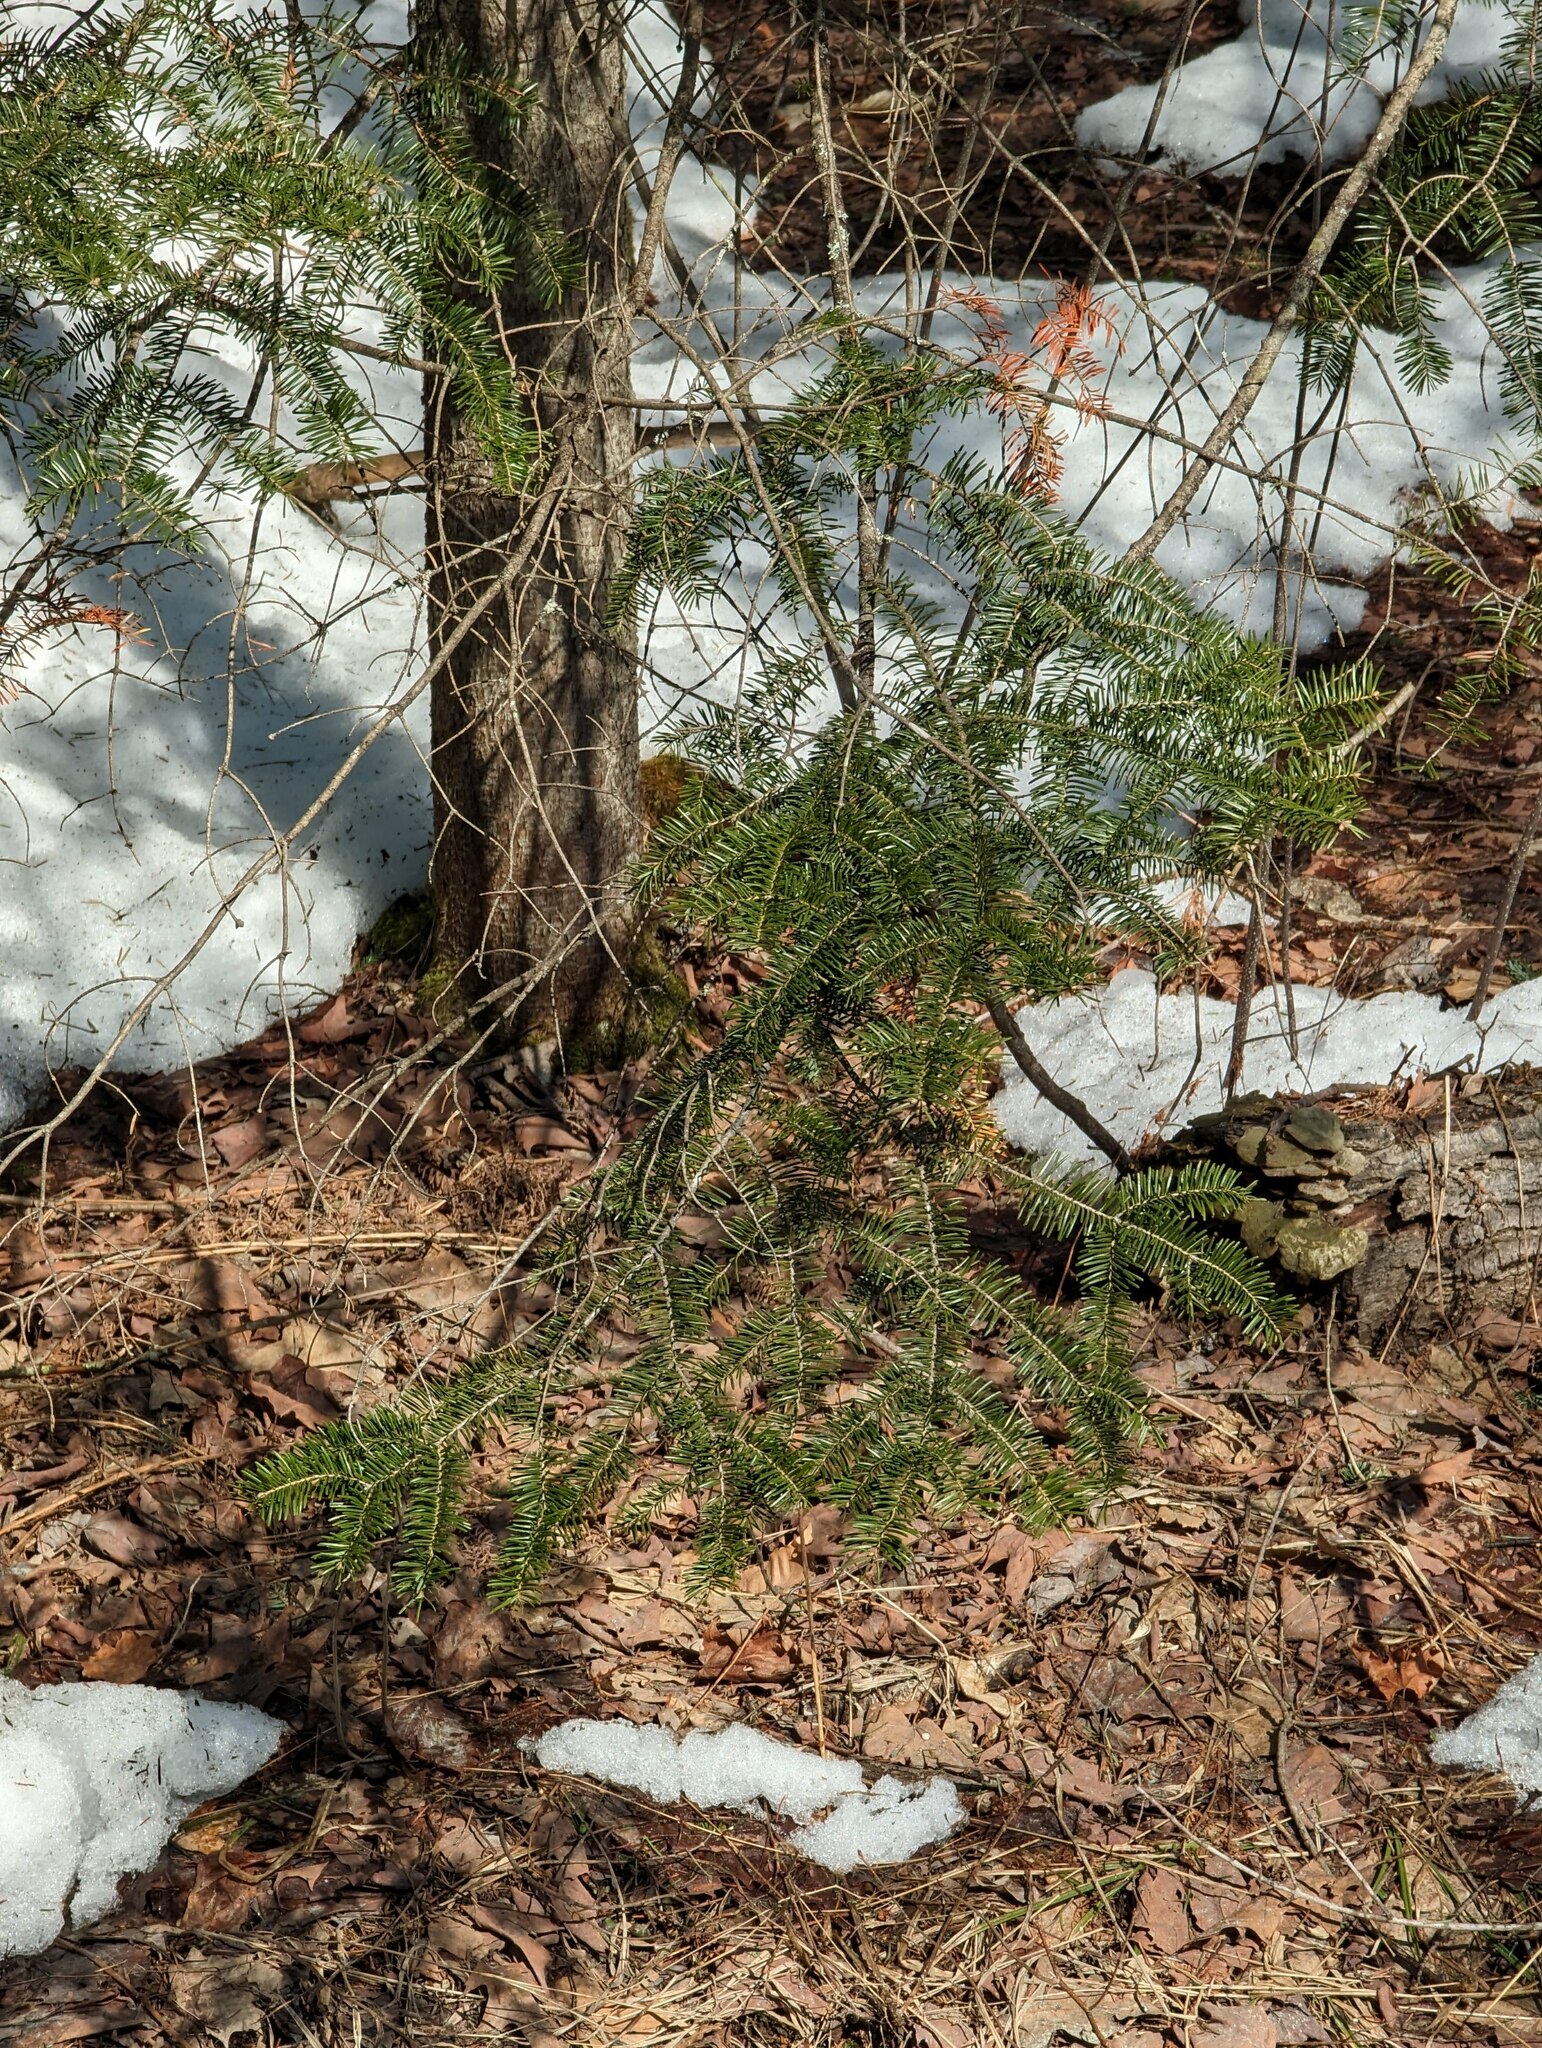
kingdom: Plantae
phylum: Tracheophyta
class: Pinopsida
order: Pinales
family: Pinaceae
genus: Abies
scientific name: Abies balsamea
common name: Balsam fir
